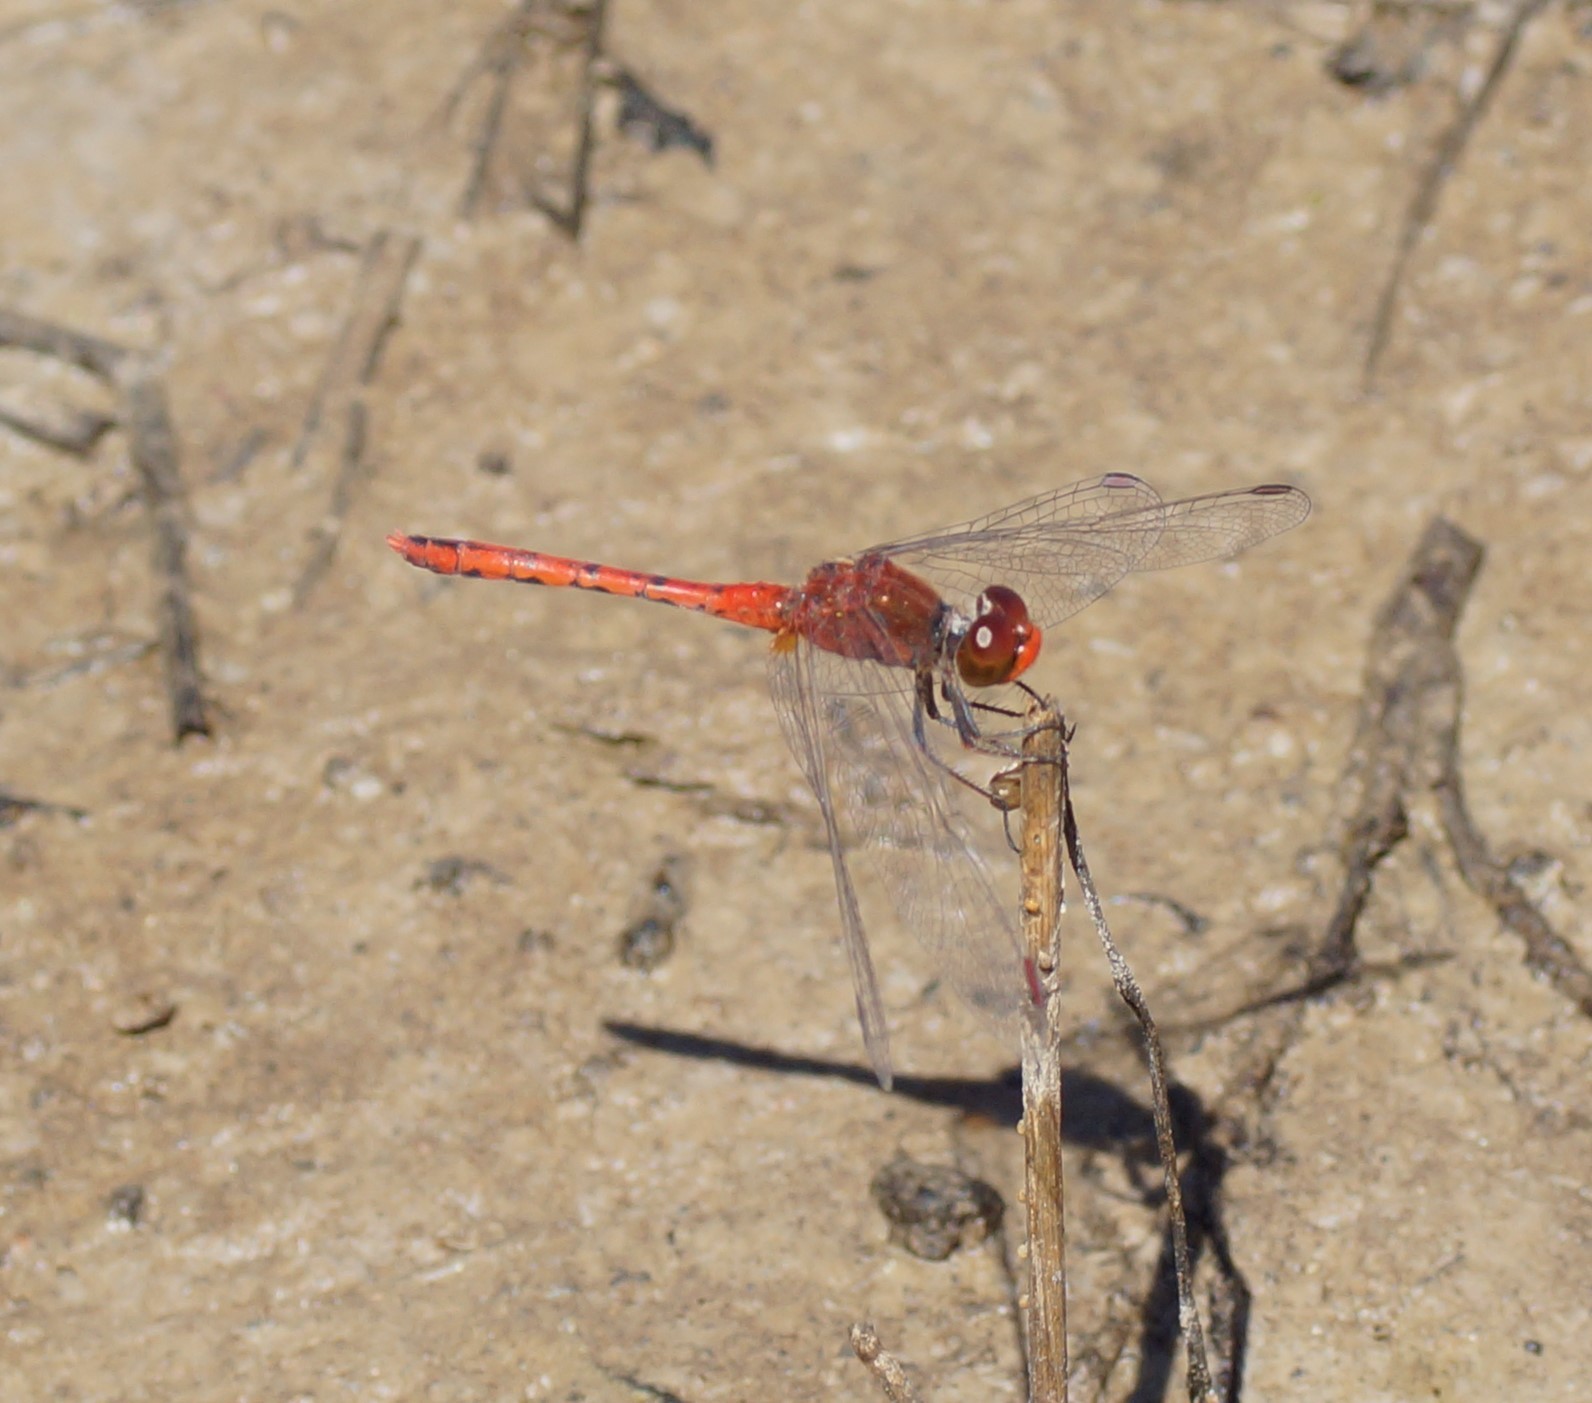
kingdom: Animalia
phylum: Arthropoda
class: Insecta
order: Odonata
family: Libellulidae
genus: Diplacodes
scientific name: Diplacodes bipunctata
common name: Red percher dragonfly
